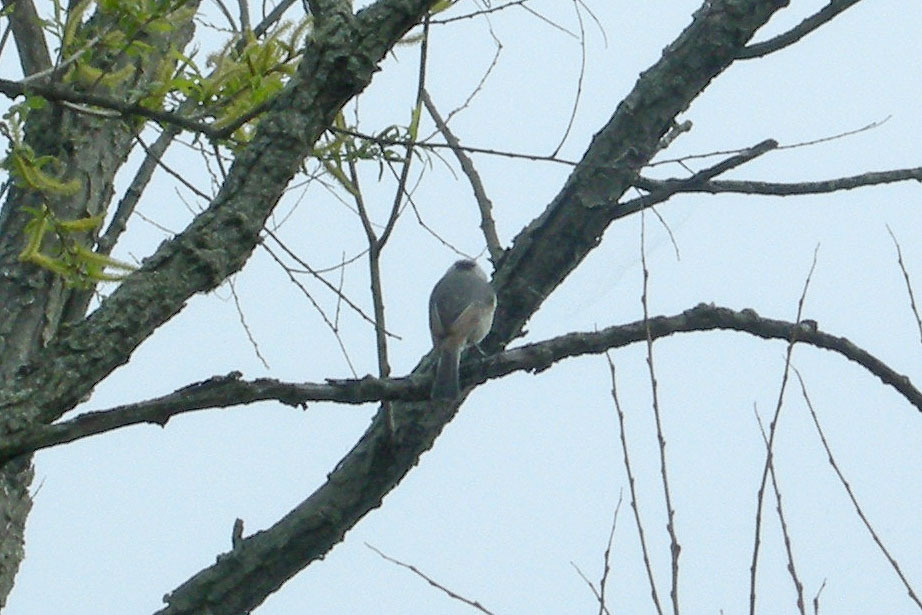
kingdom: Animalia
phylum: Chordata
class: Aves
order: Passeriformes
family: Paridae
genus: Poecile
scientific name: Poecile carolinensis
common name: Carolina chickadee
